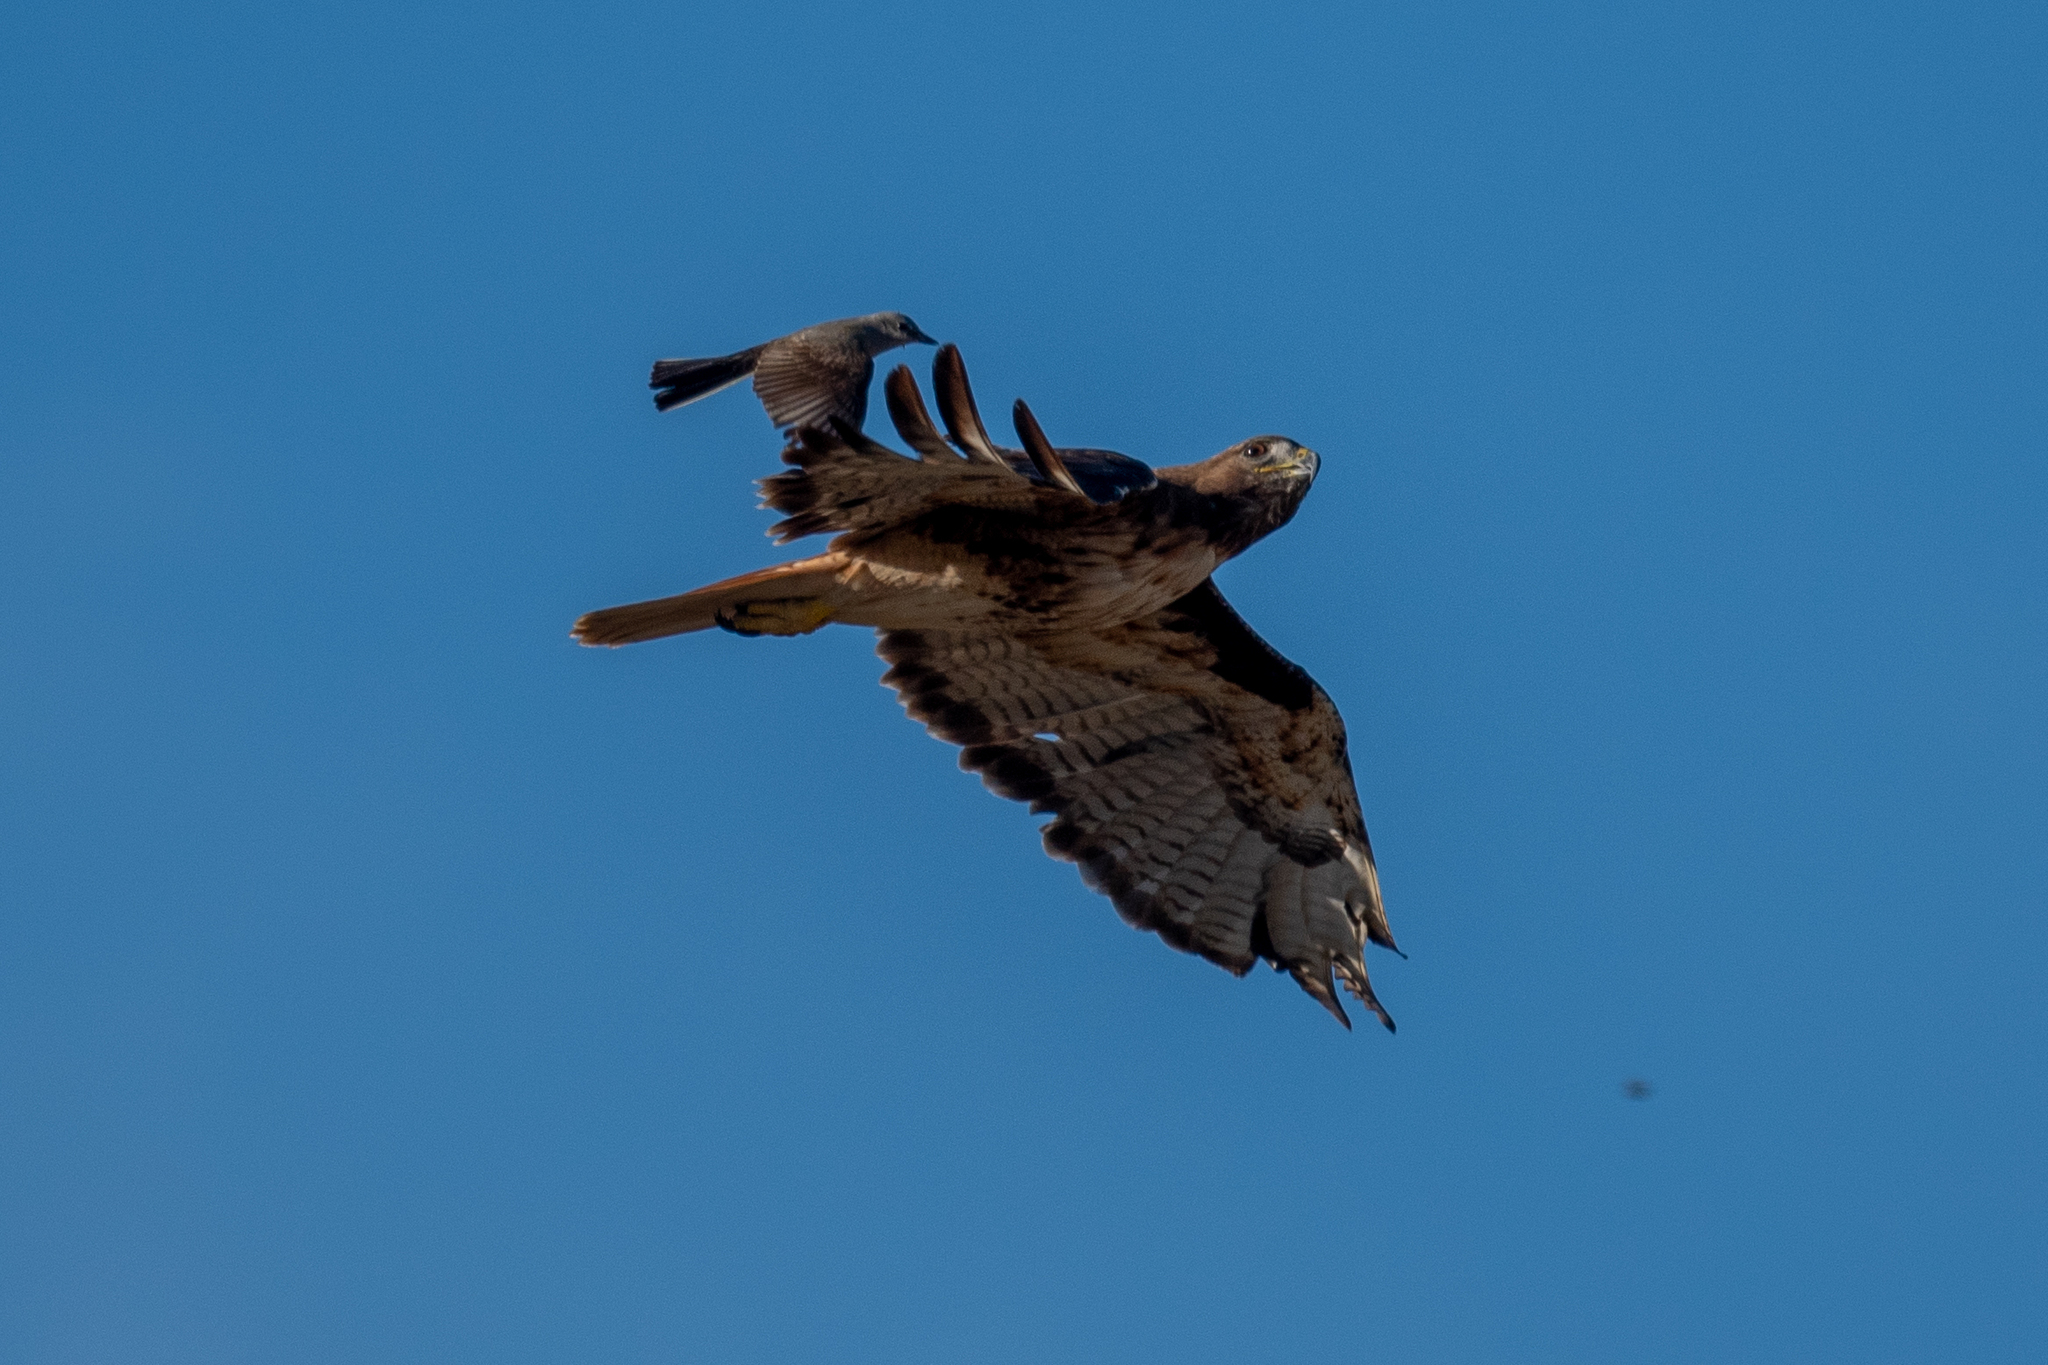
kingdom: Animalia
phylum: Chordata
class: Aves
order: Accipitriformes
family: Accipitridae
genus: Buteo
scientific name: Buteo jamaicensis
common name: Red-tailed hawk
